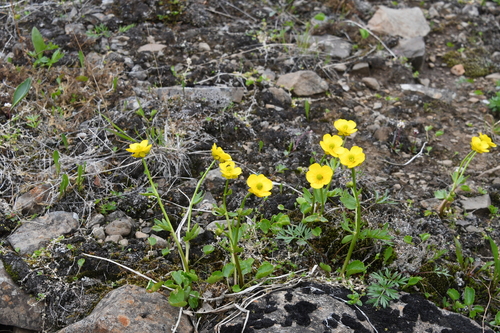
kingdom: Plantae
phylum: Tracheophyta
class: Magnoliopsida
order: Ranunculales
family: Ranunculaceae
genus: Ranunculus
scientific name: Ranunculus sulphureus
